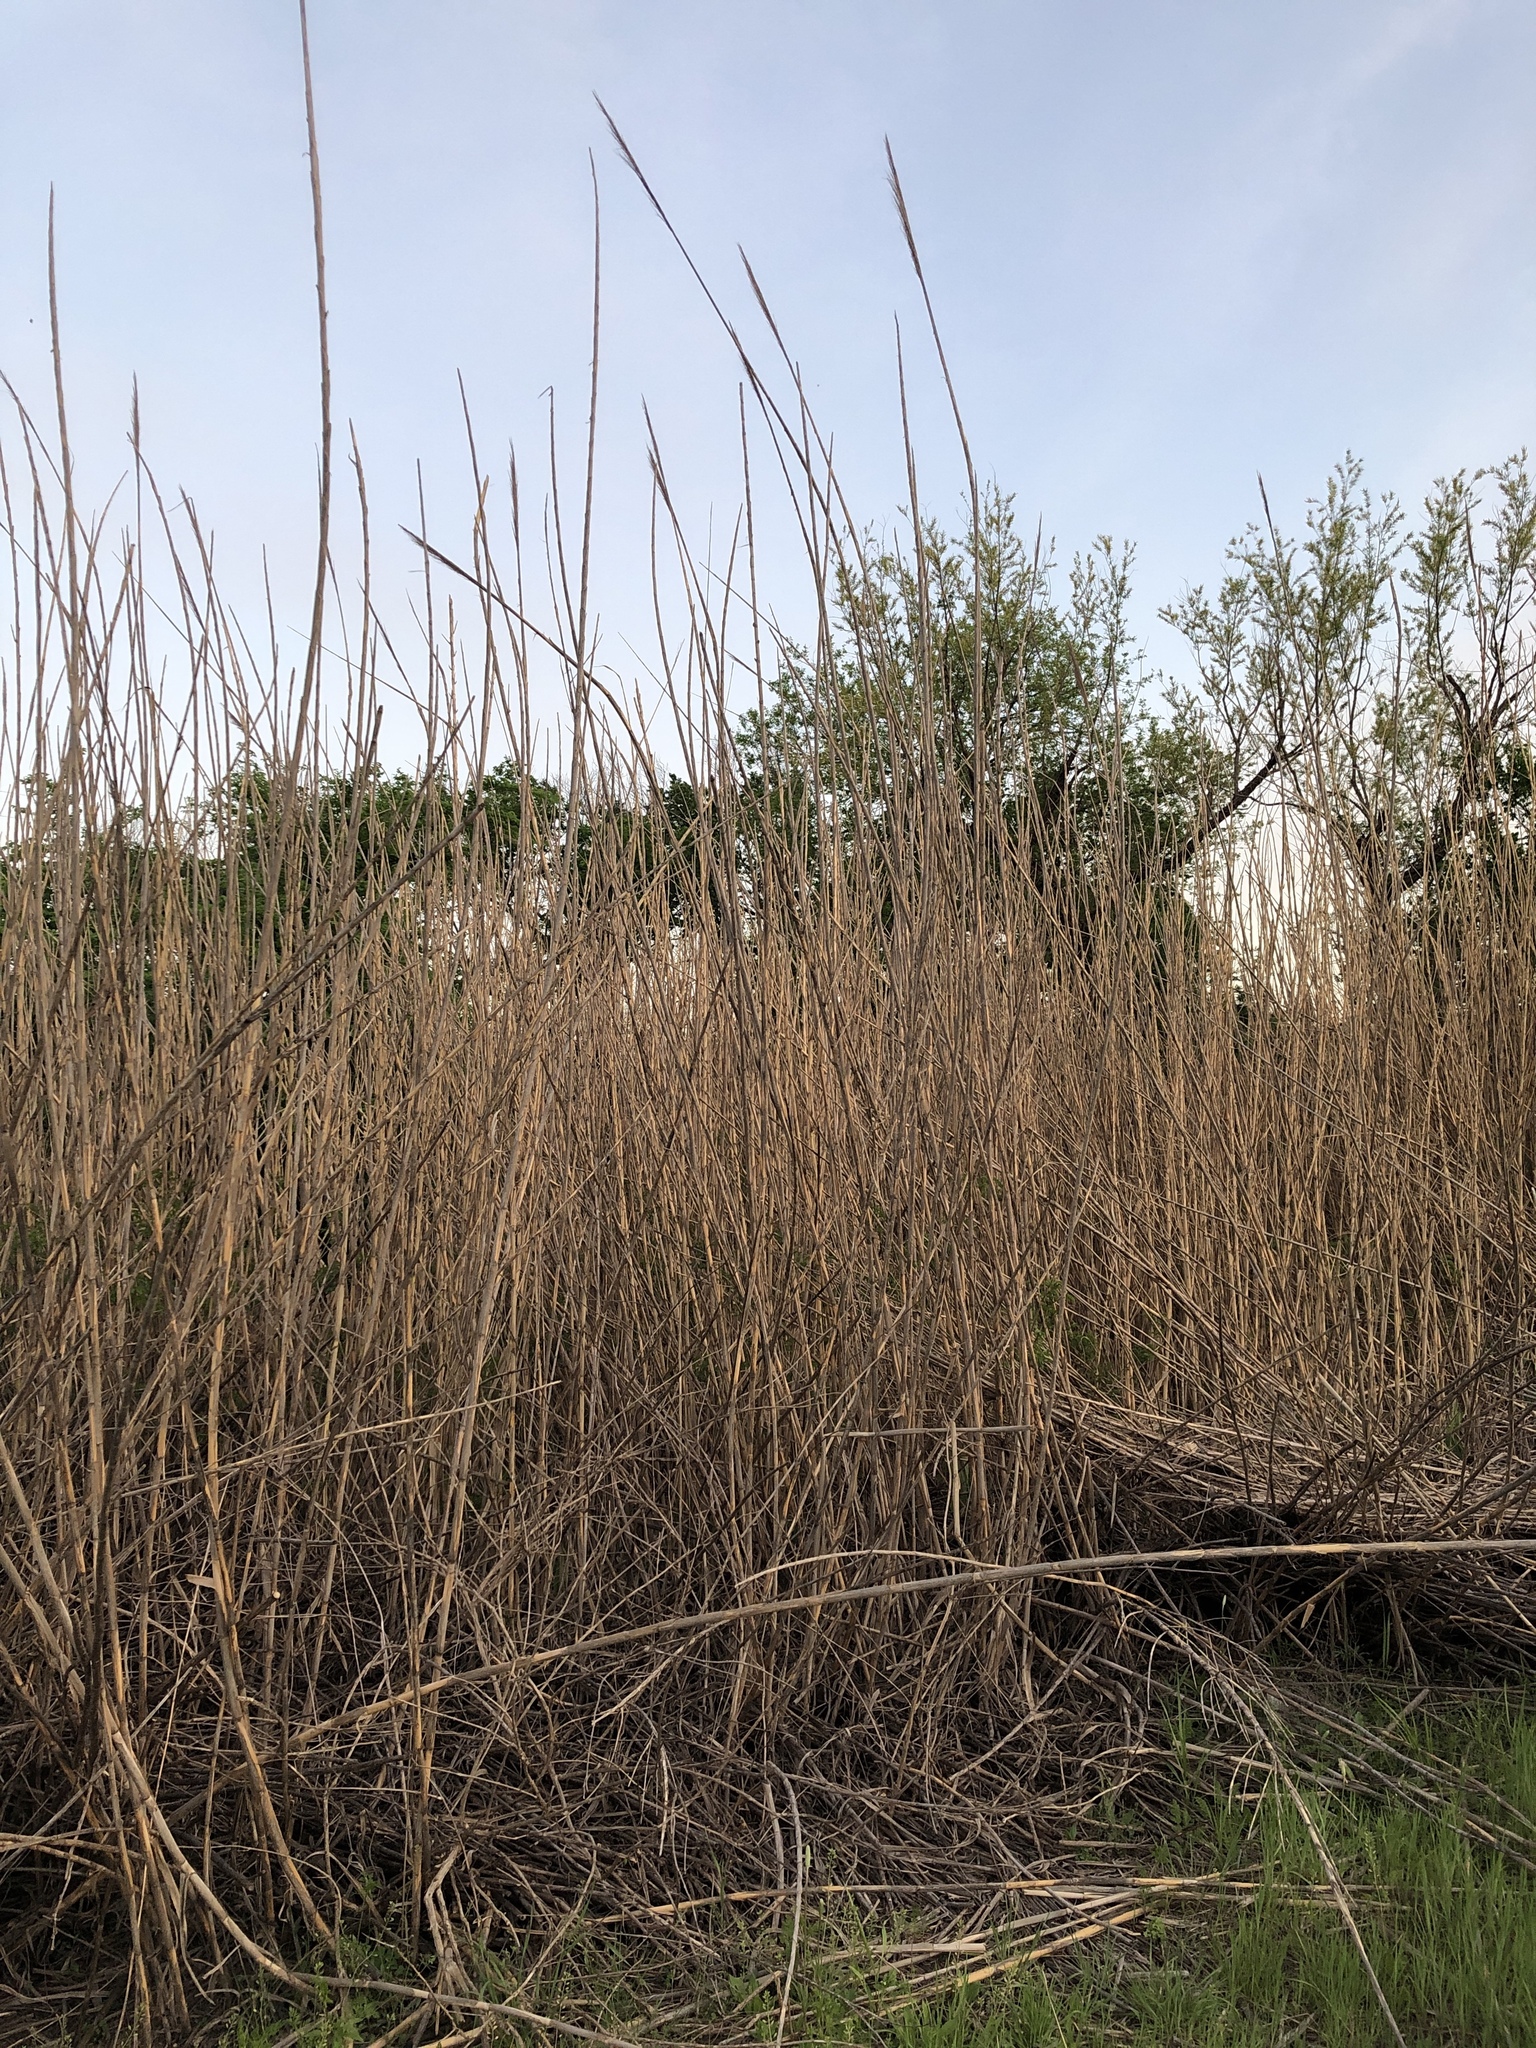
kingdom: Plantae
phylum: Tracheophyta
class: Liliopsida
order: Poales
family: Poaceae
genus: Arundo
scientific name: Arundo donax
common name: Giant reed
